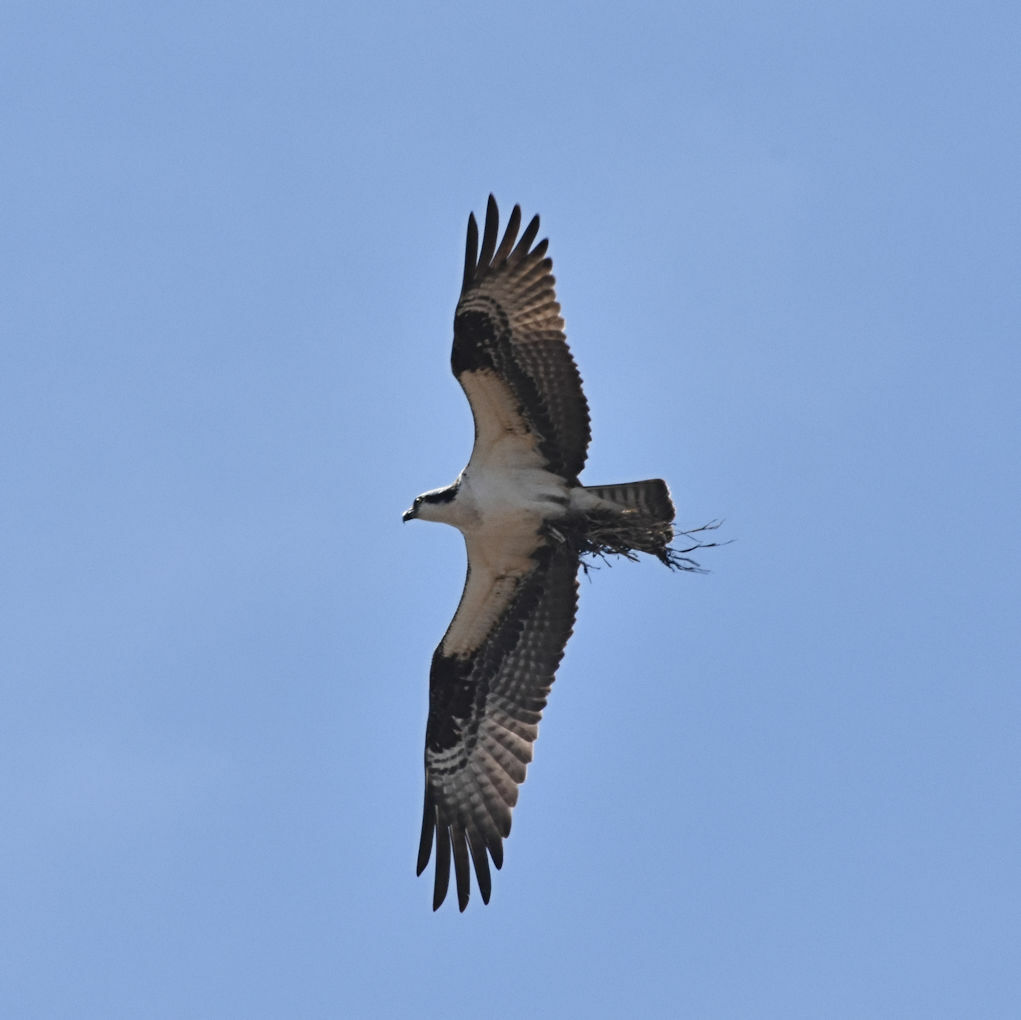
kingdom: Animalia
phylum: Chordata
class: Aves
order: Accipitriformes
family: Pandionidae
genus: Pandion
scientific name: Pandion haliaetus
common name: Osprey
